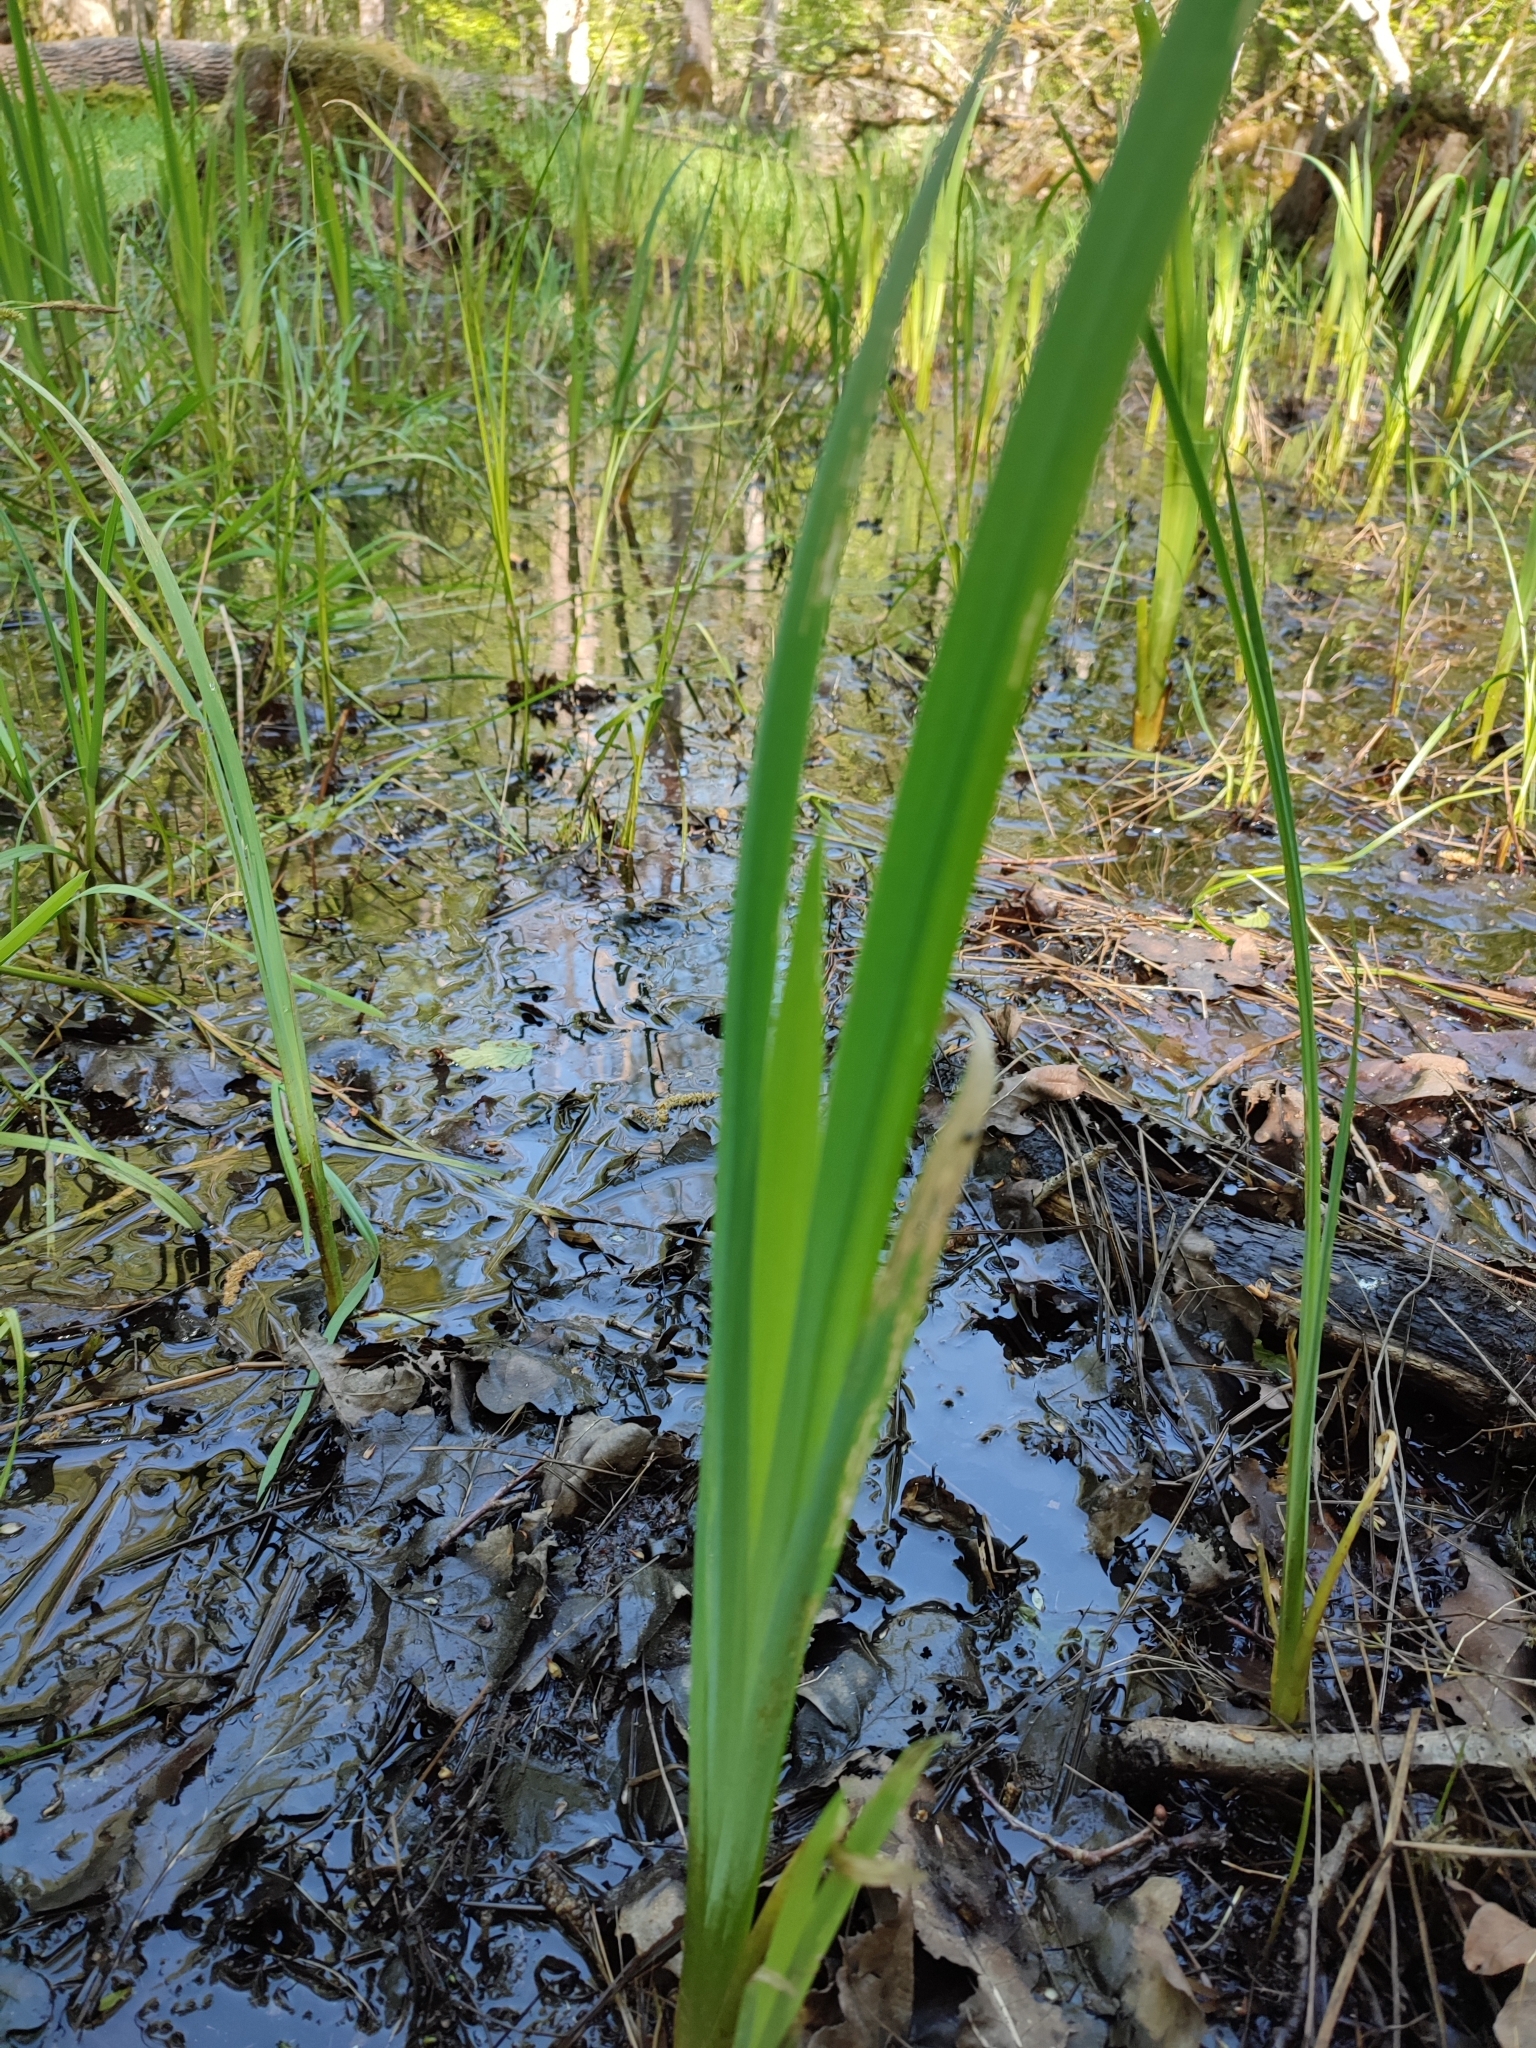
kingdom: Plantae
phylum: Tracheophyta
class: Liliopsida
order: Asparagales
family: Iridaceae
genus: Iris
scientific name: Iris pseudacorus
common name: Yellow flag
